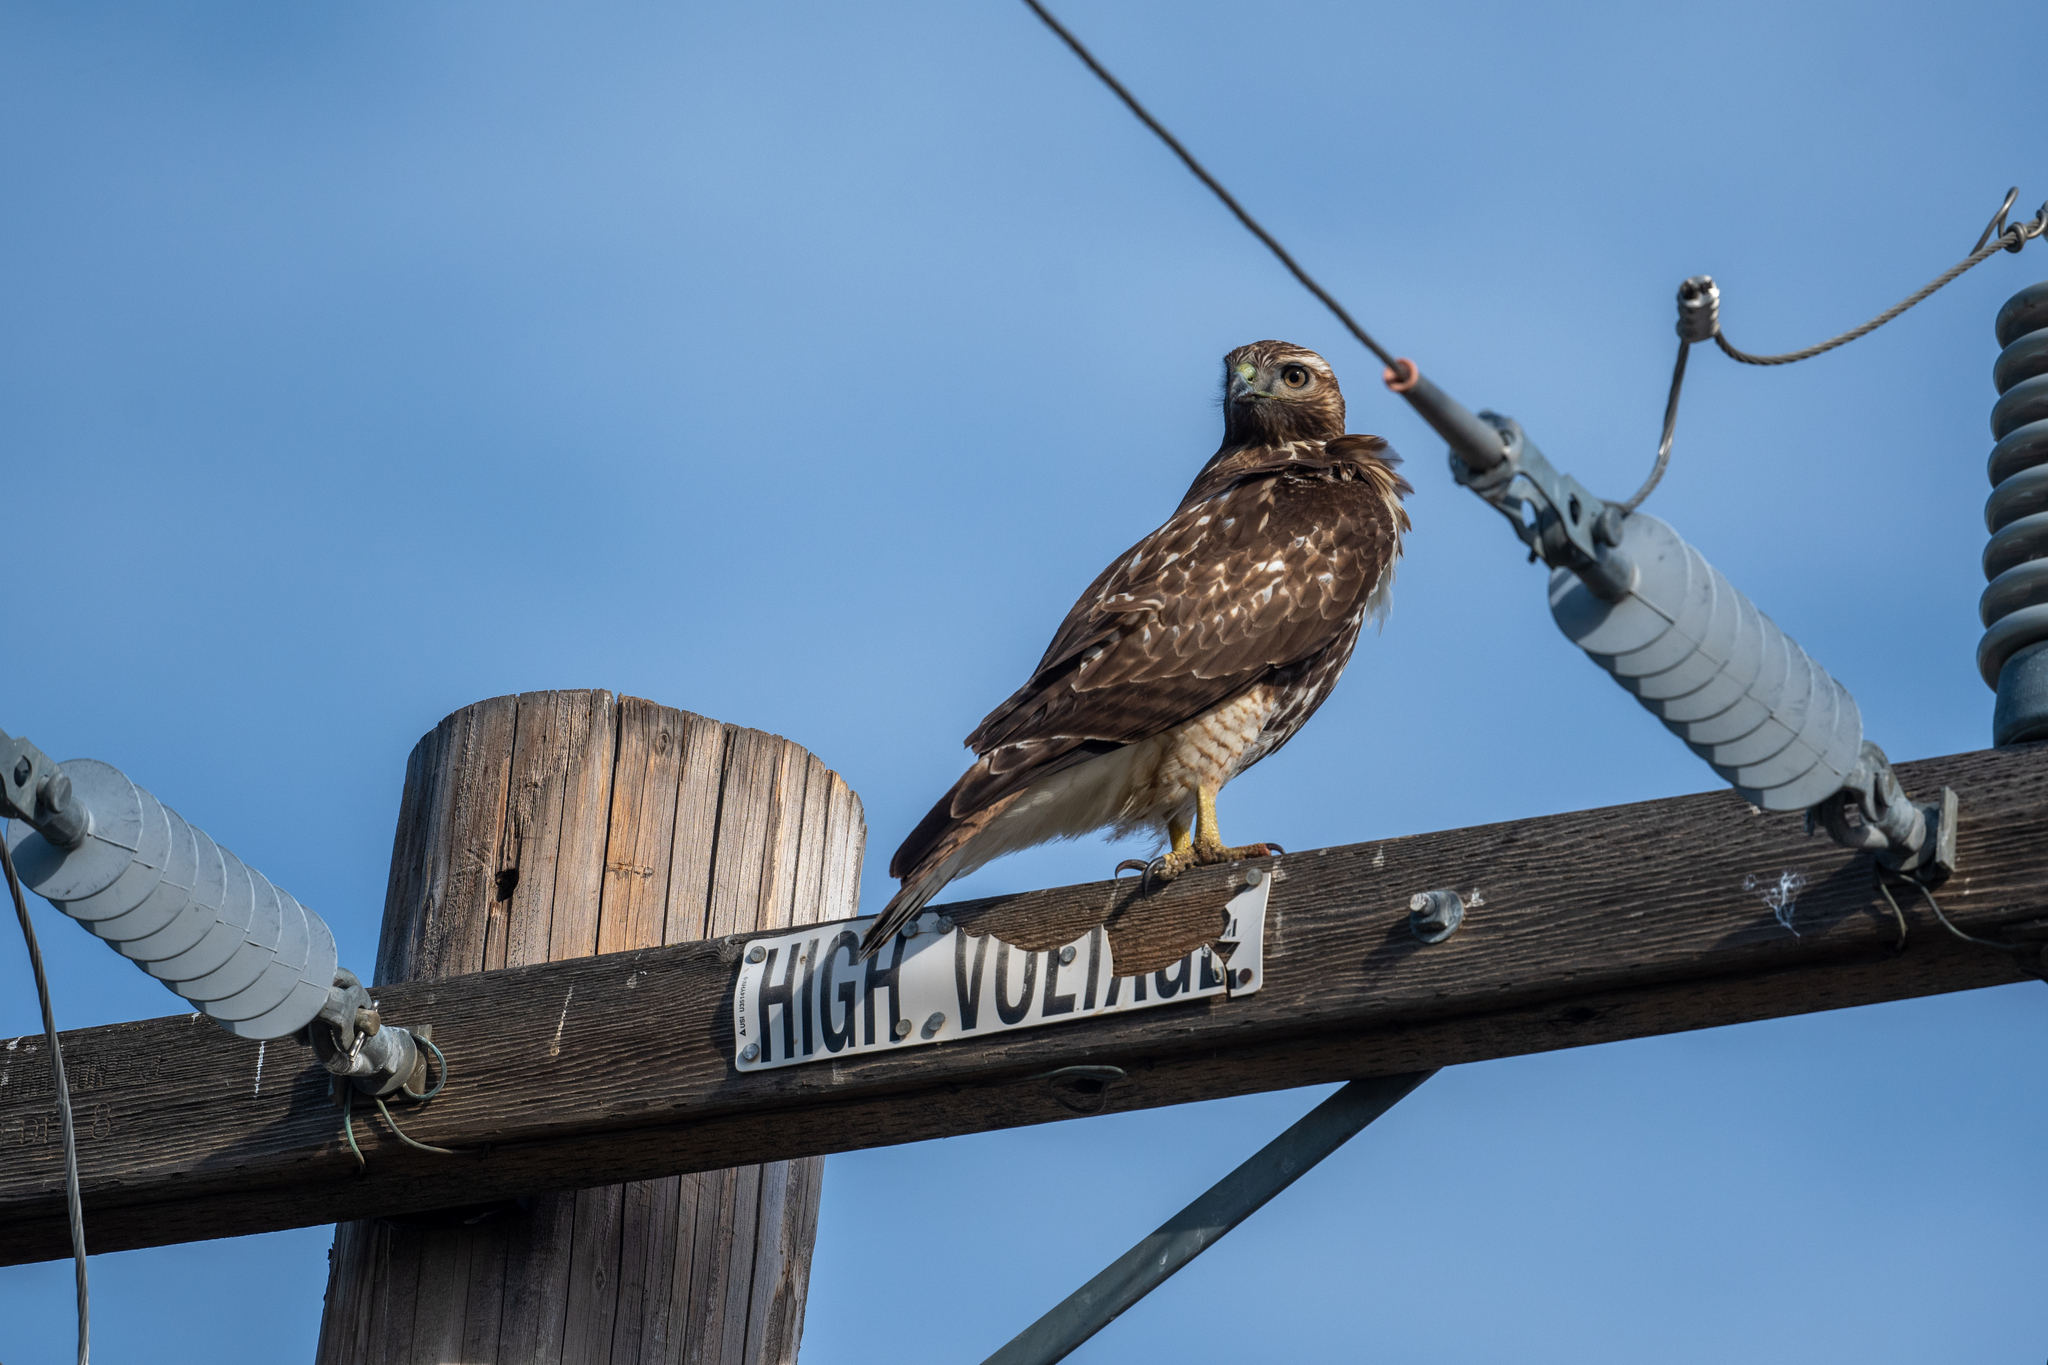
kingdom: Animalia
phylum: Chordata
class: Aves
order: Accipitriformes
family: Accipitridae
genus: Buteo
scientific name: Buteo jamaicensis
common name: Red-tailed hawk
